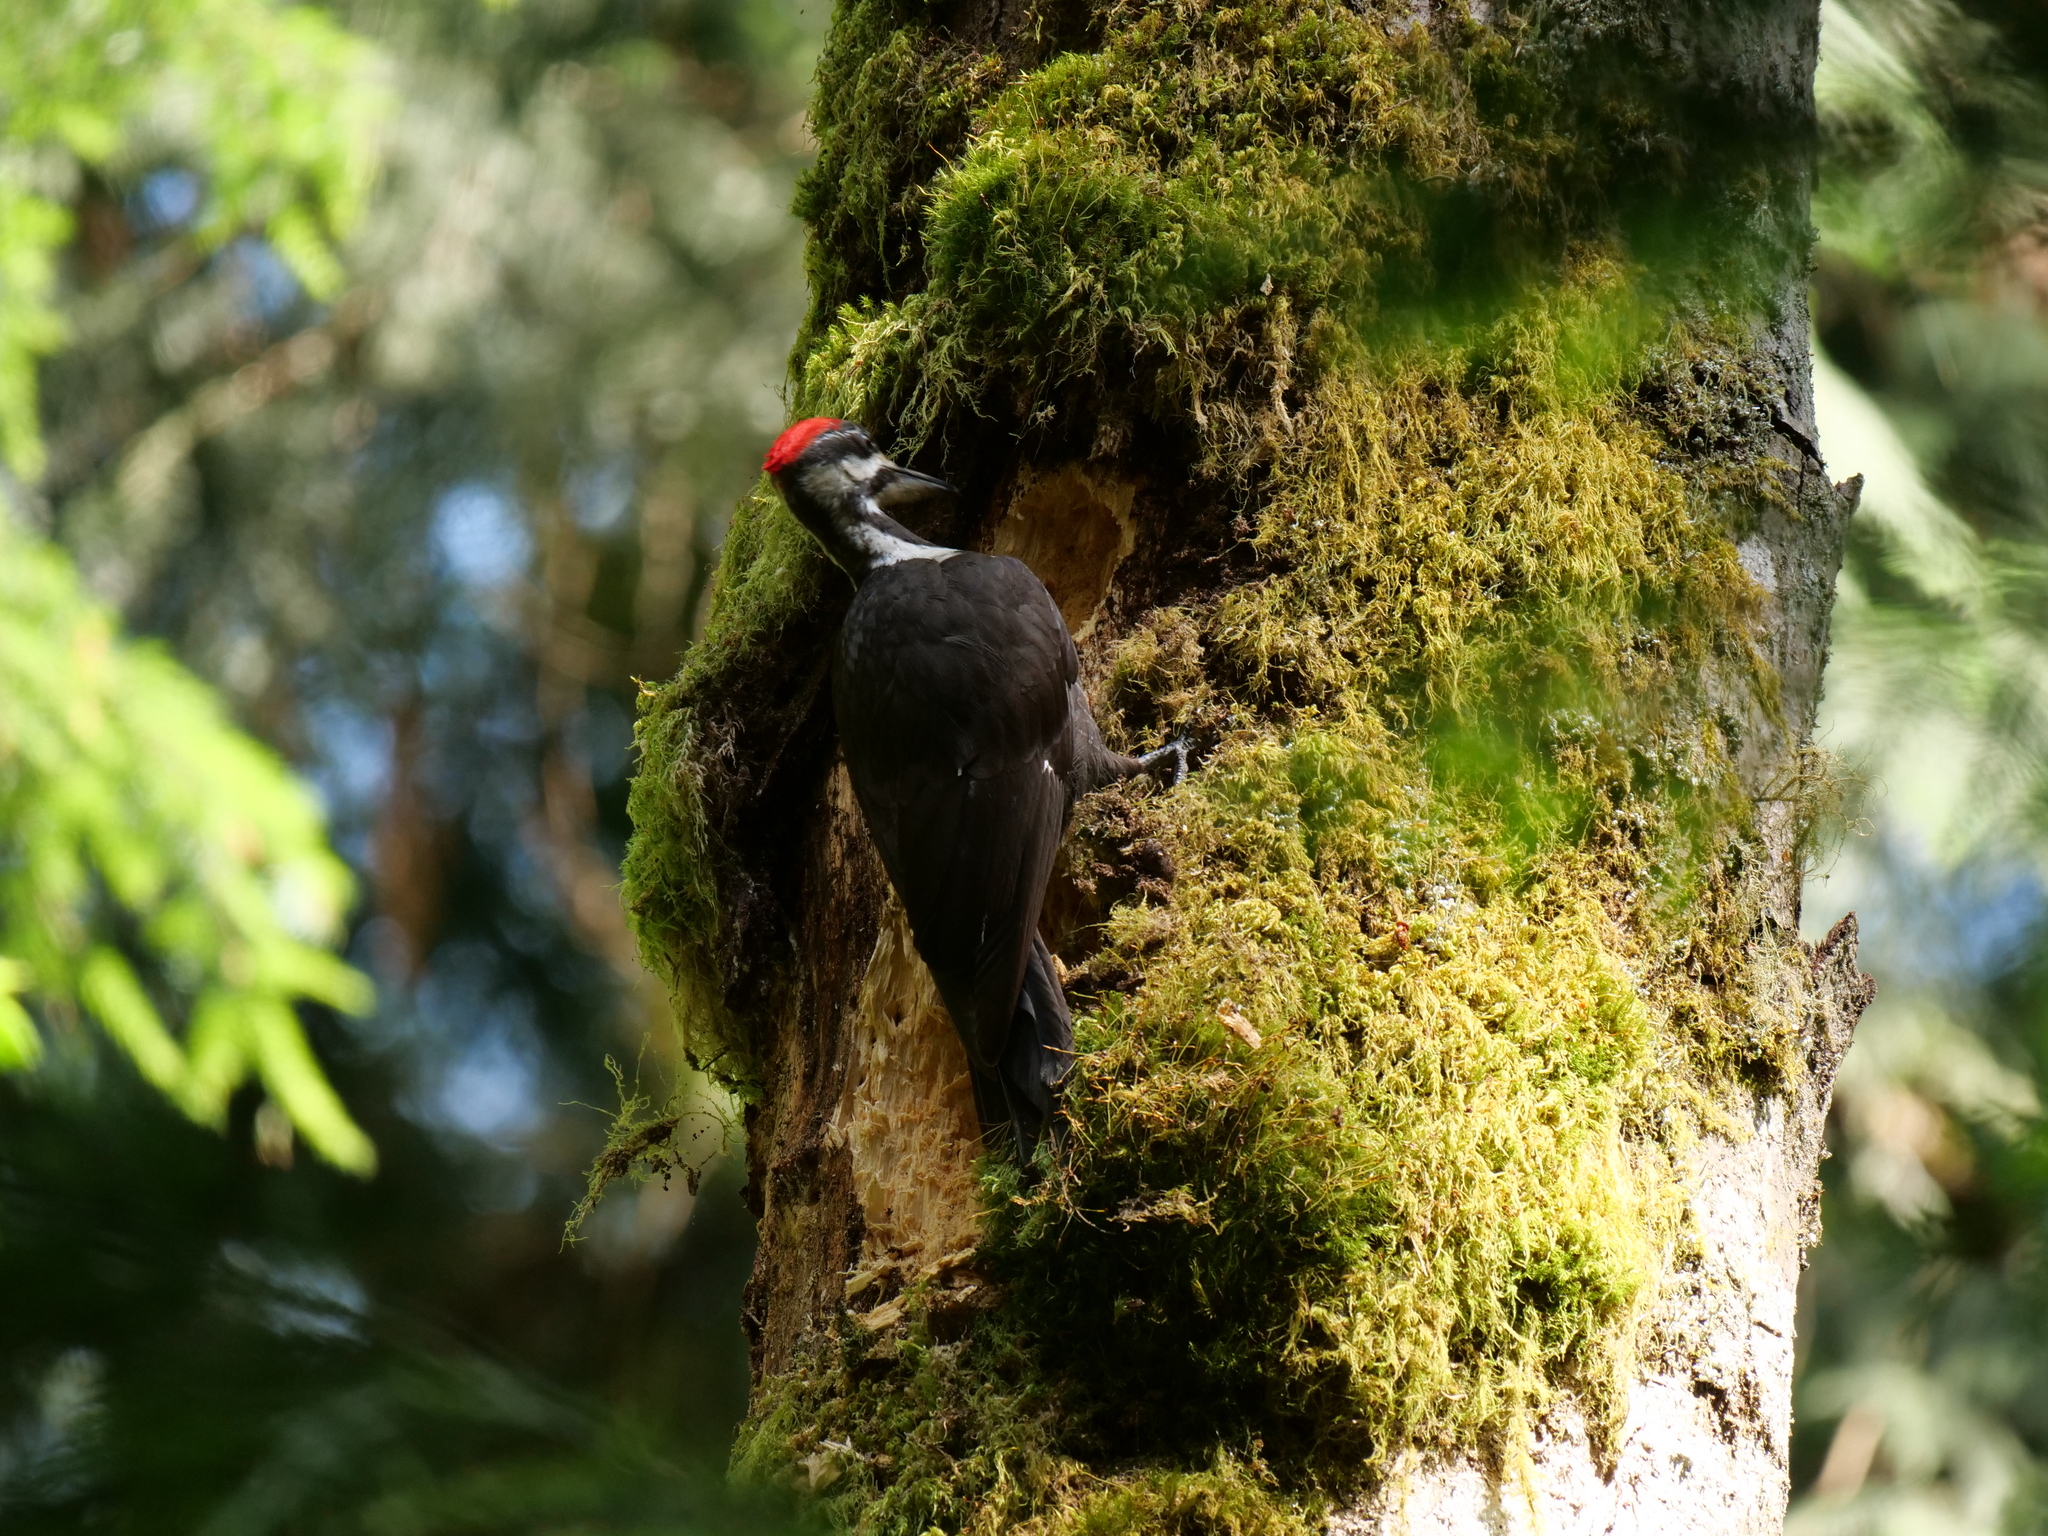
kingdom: Animalia
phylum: Chordata
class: Aves
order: Piciformes
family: Picidae
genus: Dryocopus
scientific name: Dryocopus pileatus
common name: Pileated woodpecker
